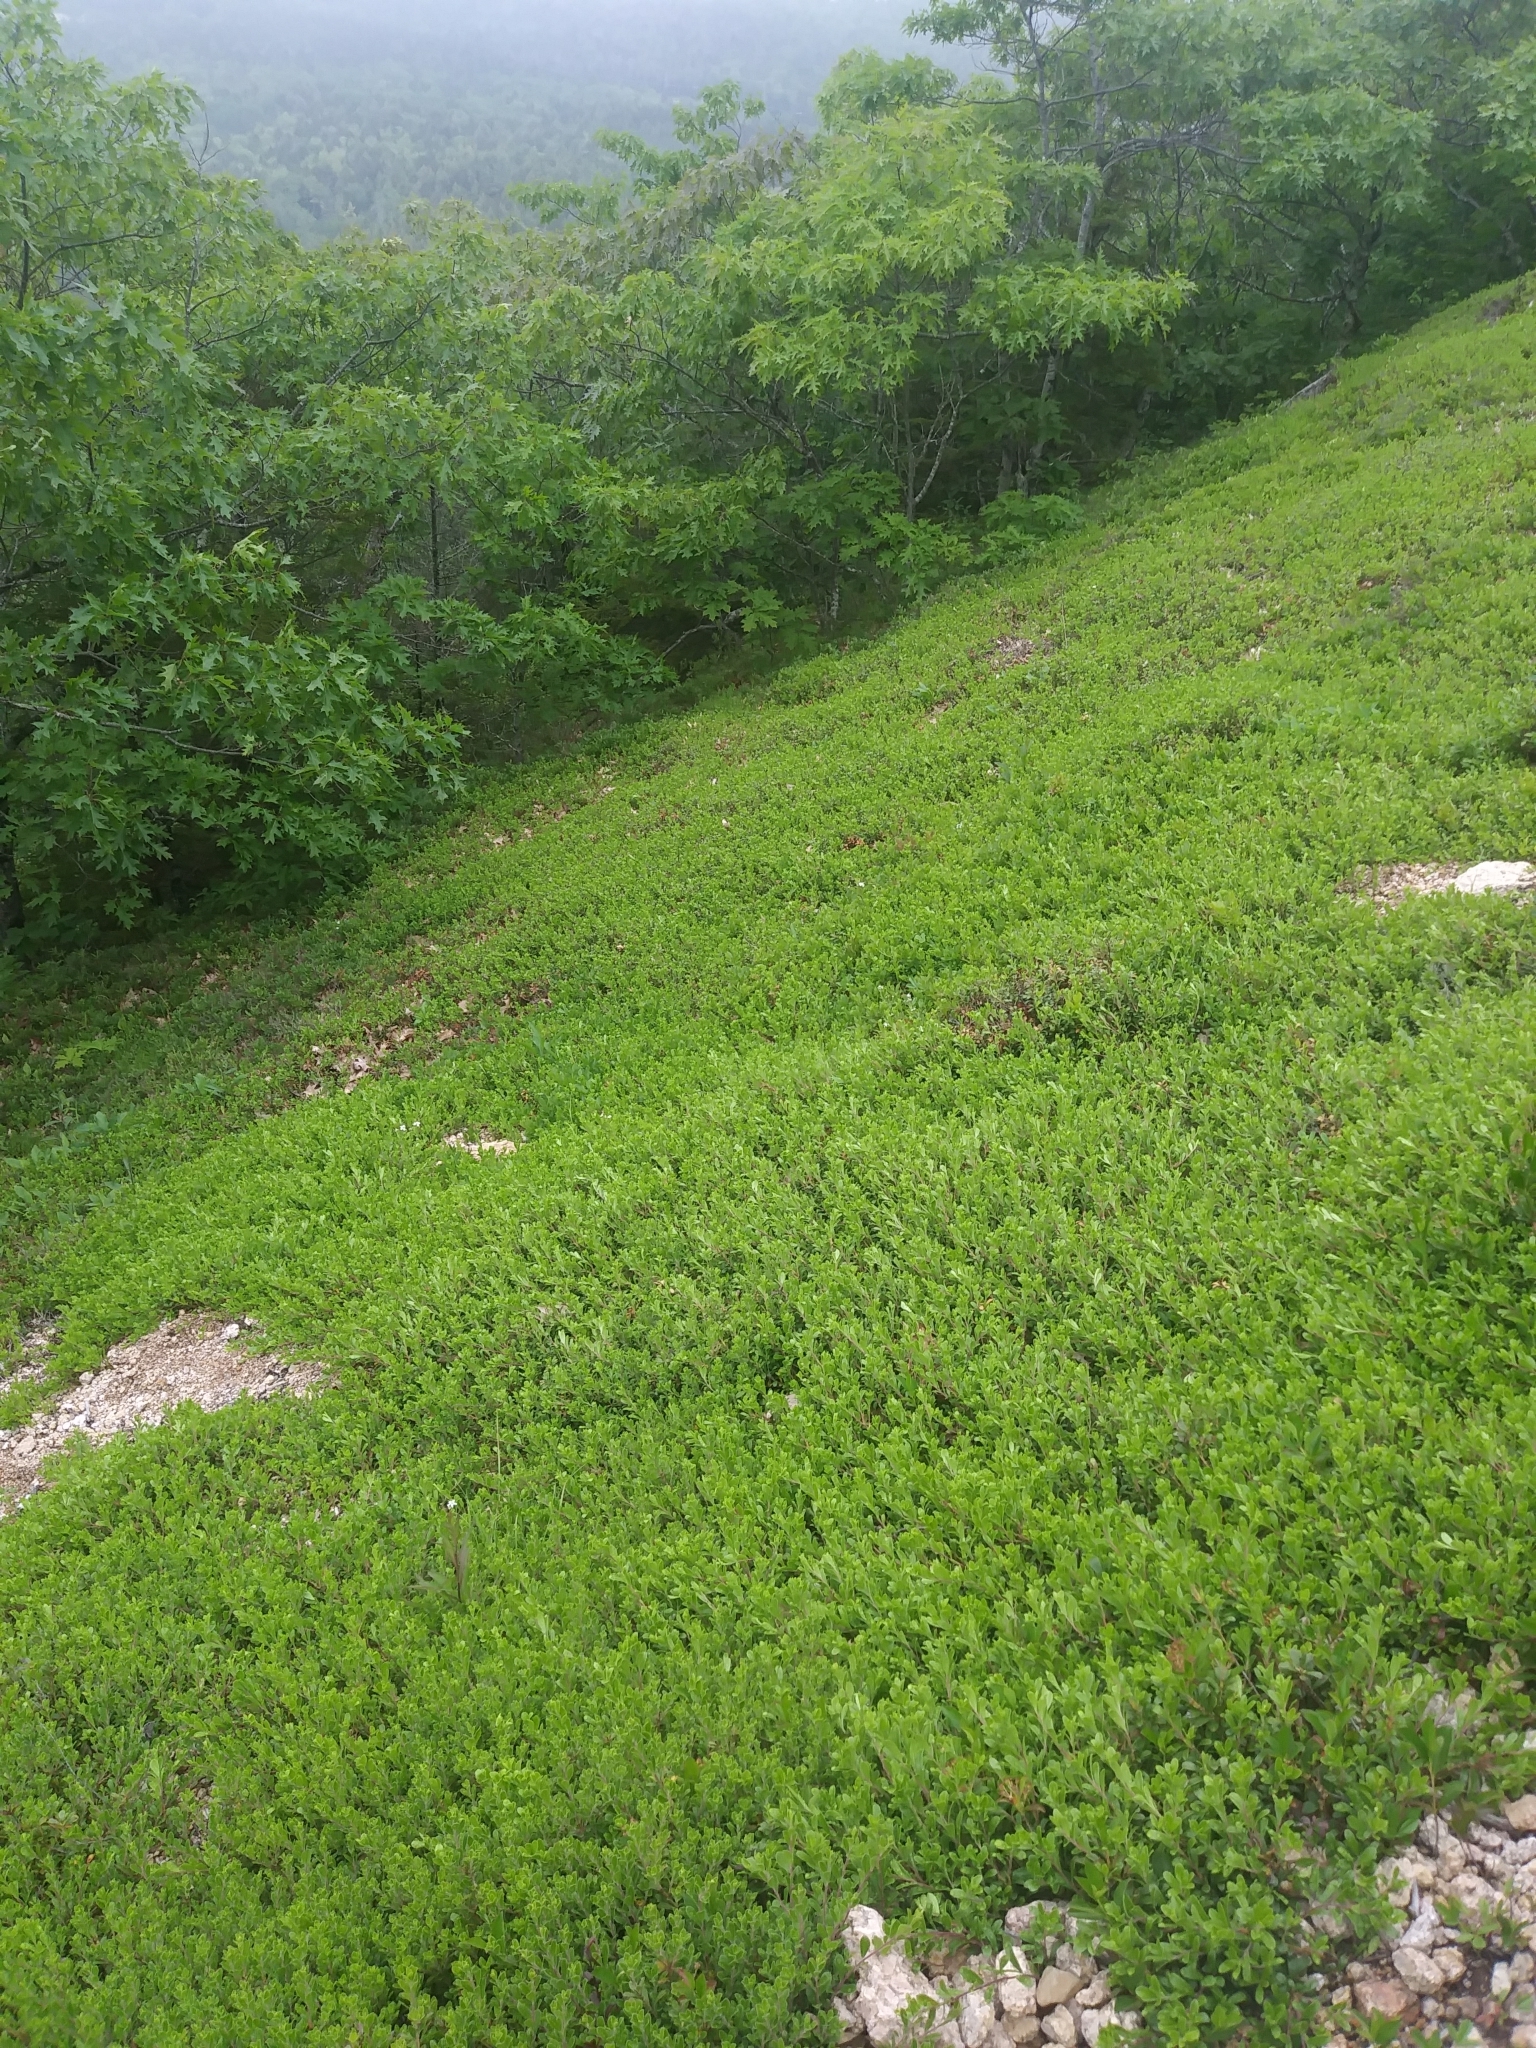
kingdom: Plantae
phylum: Tracheophyta
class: Magnoliopsida
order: Ericales
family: Ericaceae
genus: Arctostaphylos
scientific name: Arctostaphylos uva-ursi
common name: Bearberry
